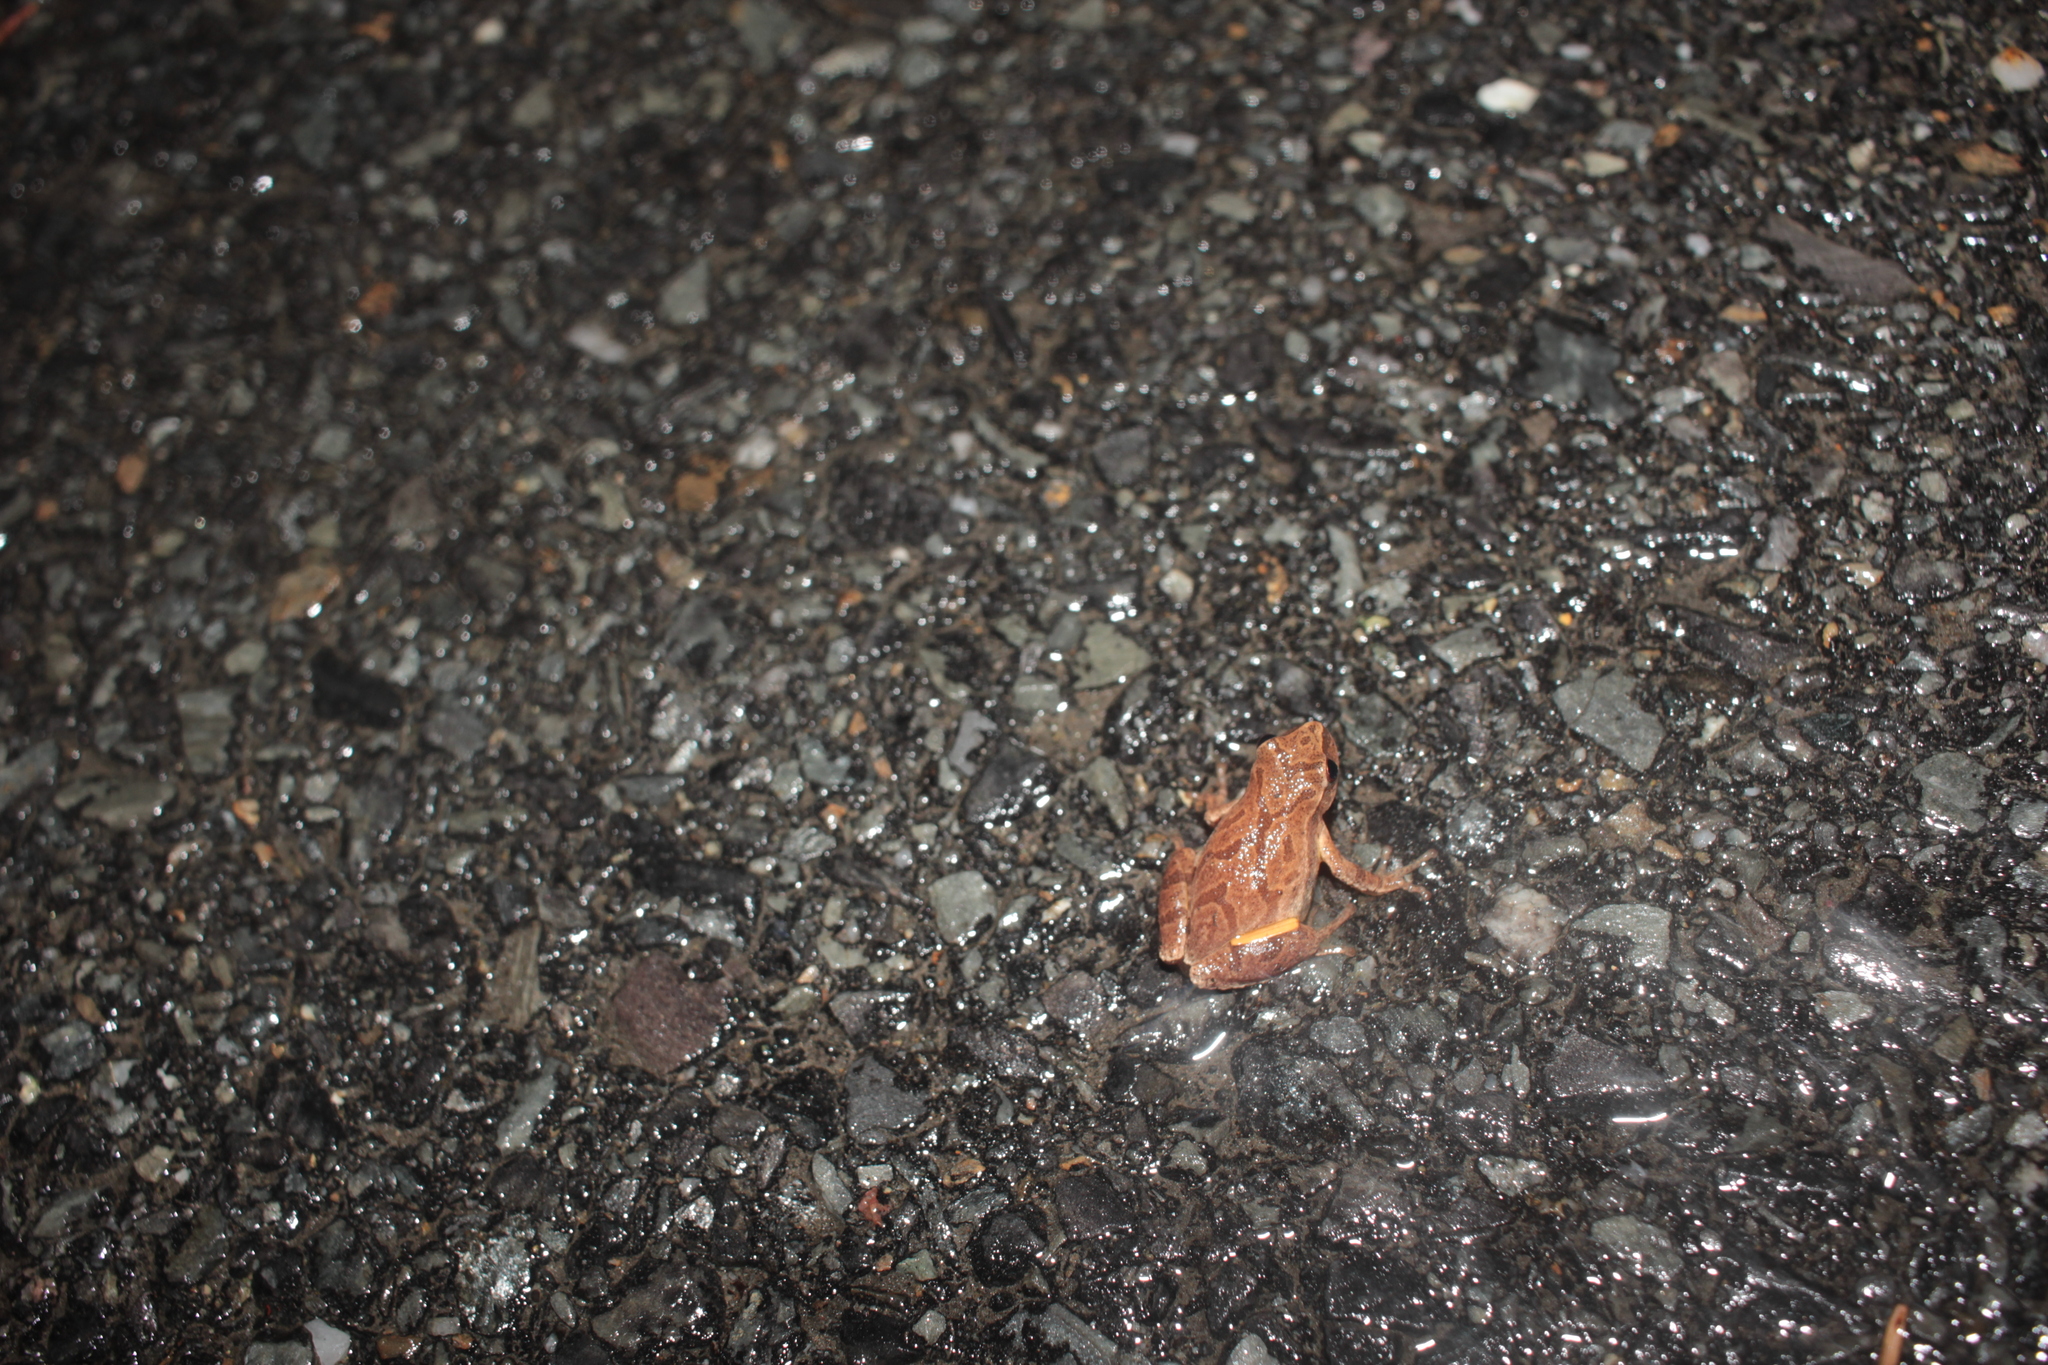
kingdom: Animalia
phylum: Chordata
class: Amphibia
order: Anura
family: Hylidae
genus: Pseudacris
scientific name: Pseudacris crucifer
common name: Spring peeper
